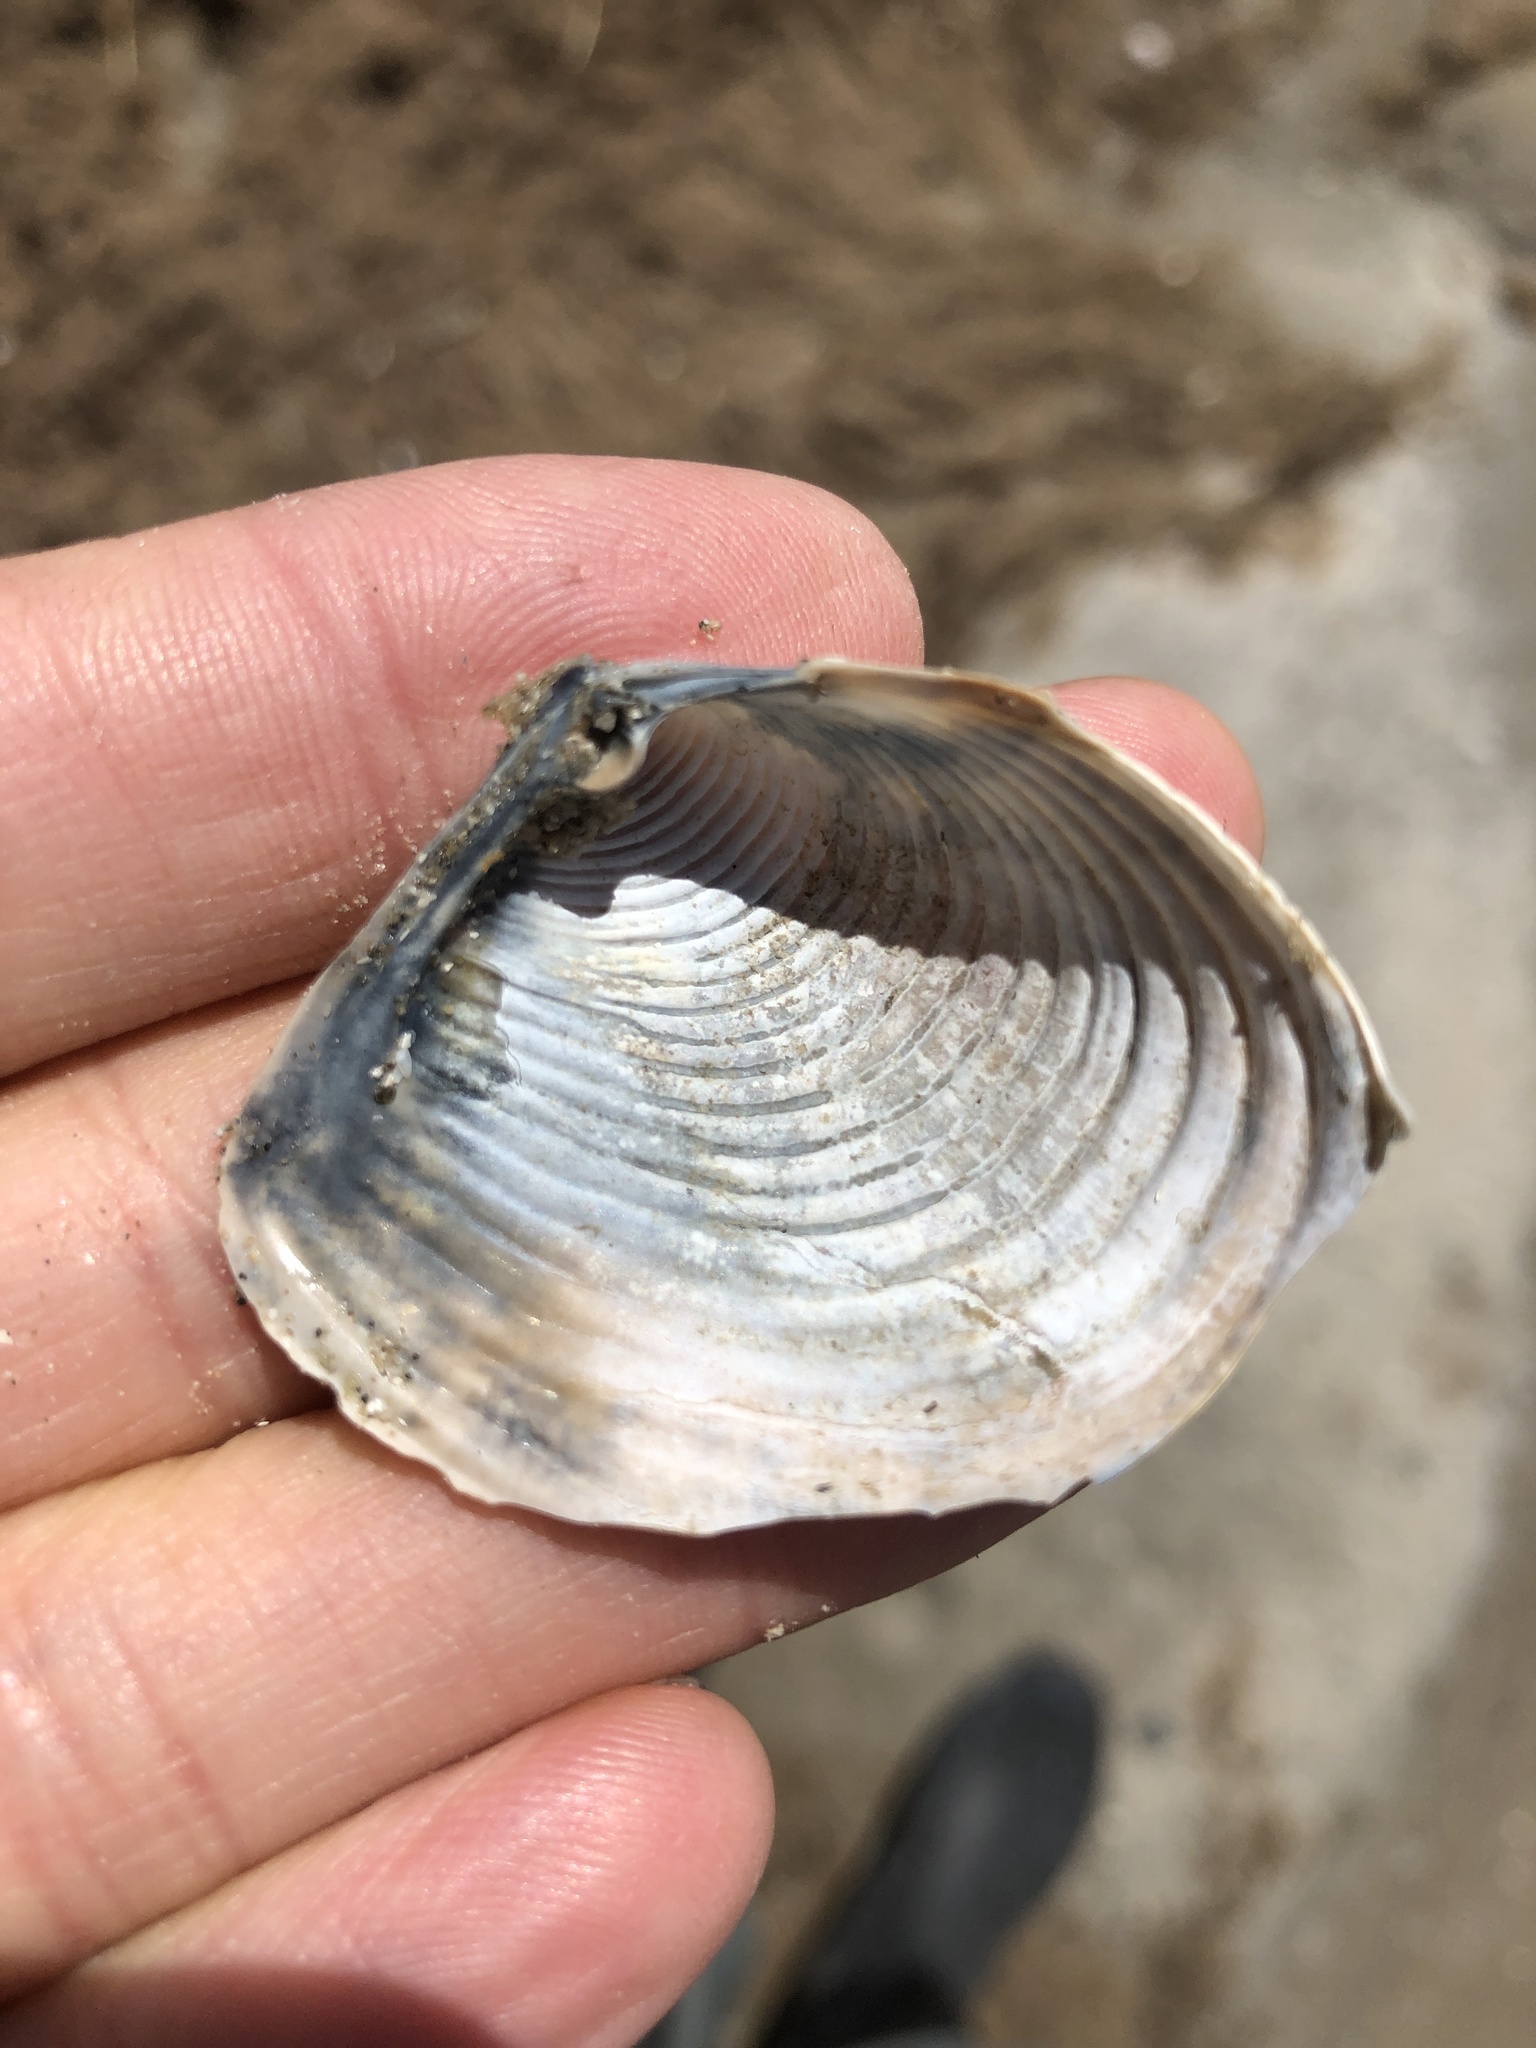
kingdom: Animalia
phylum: Mollusca
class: Bivalvia
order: Venerida
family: Anatinellidae
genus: Raeta
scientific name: Raeta plicatella
